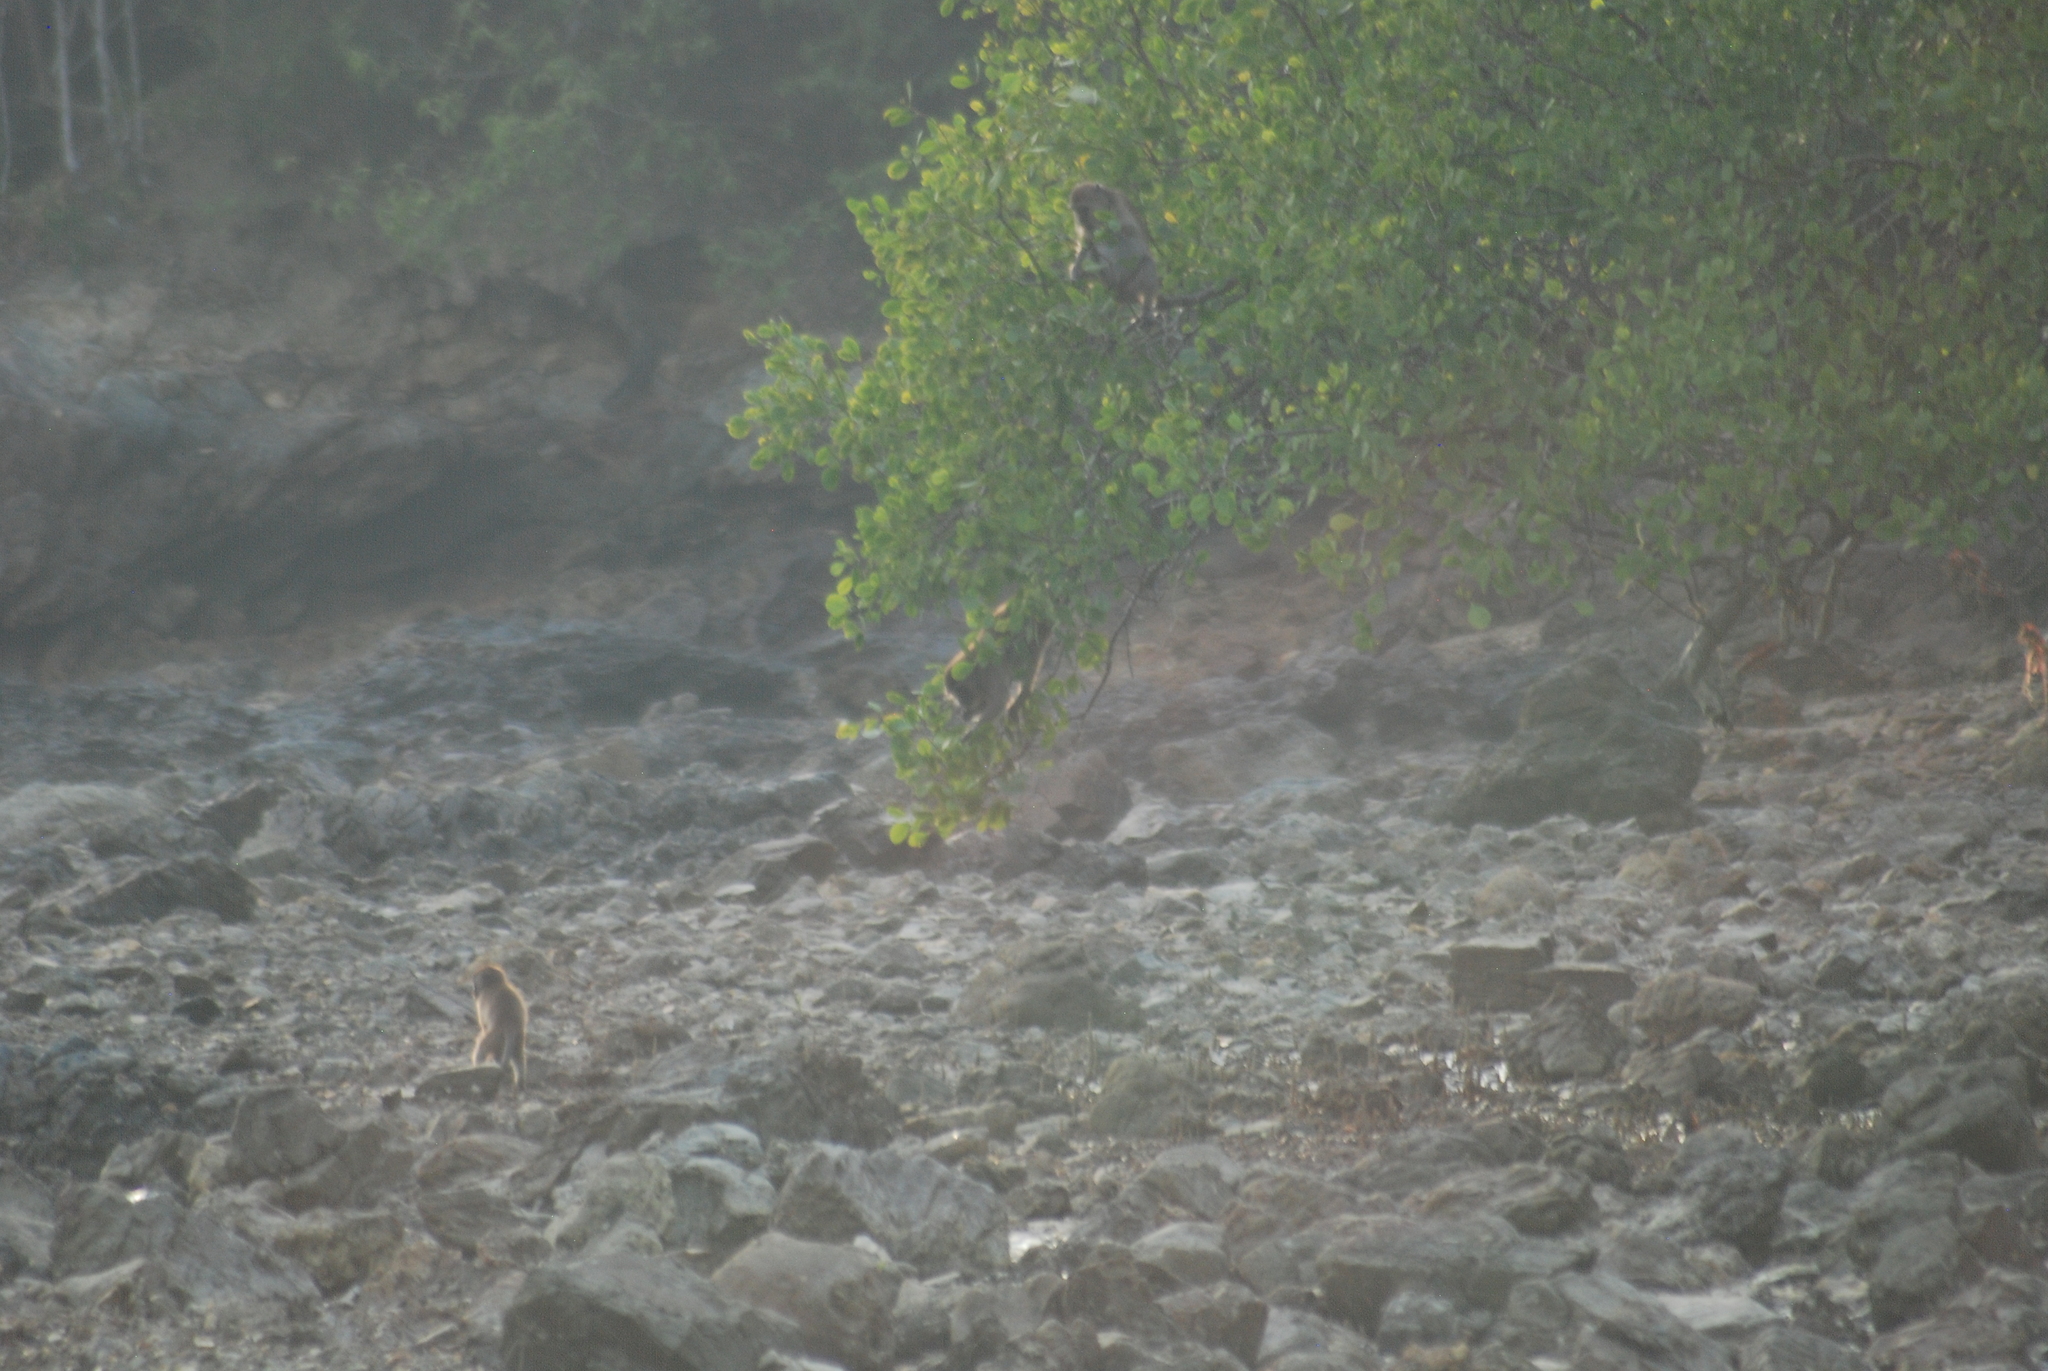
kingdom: Animalia
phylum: Chordata
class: Mammalia
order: Primates
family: Cercopithecidae
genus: Macaca
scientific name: Macaca fascicularis
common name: Crab-eating macaque
